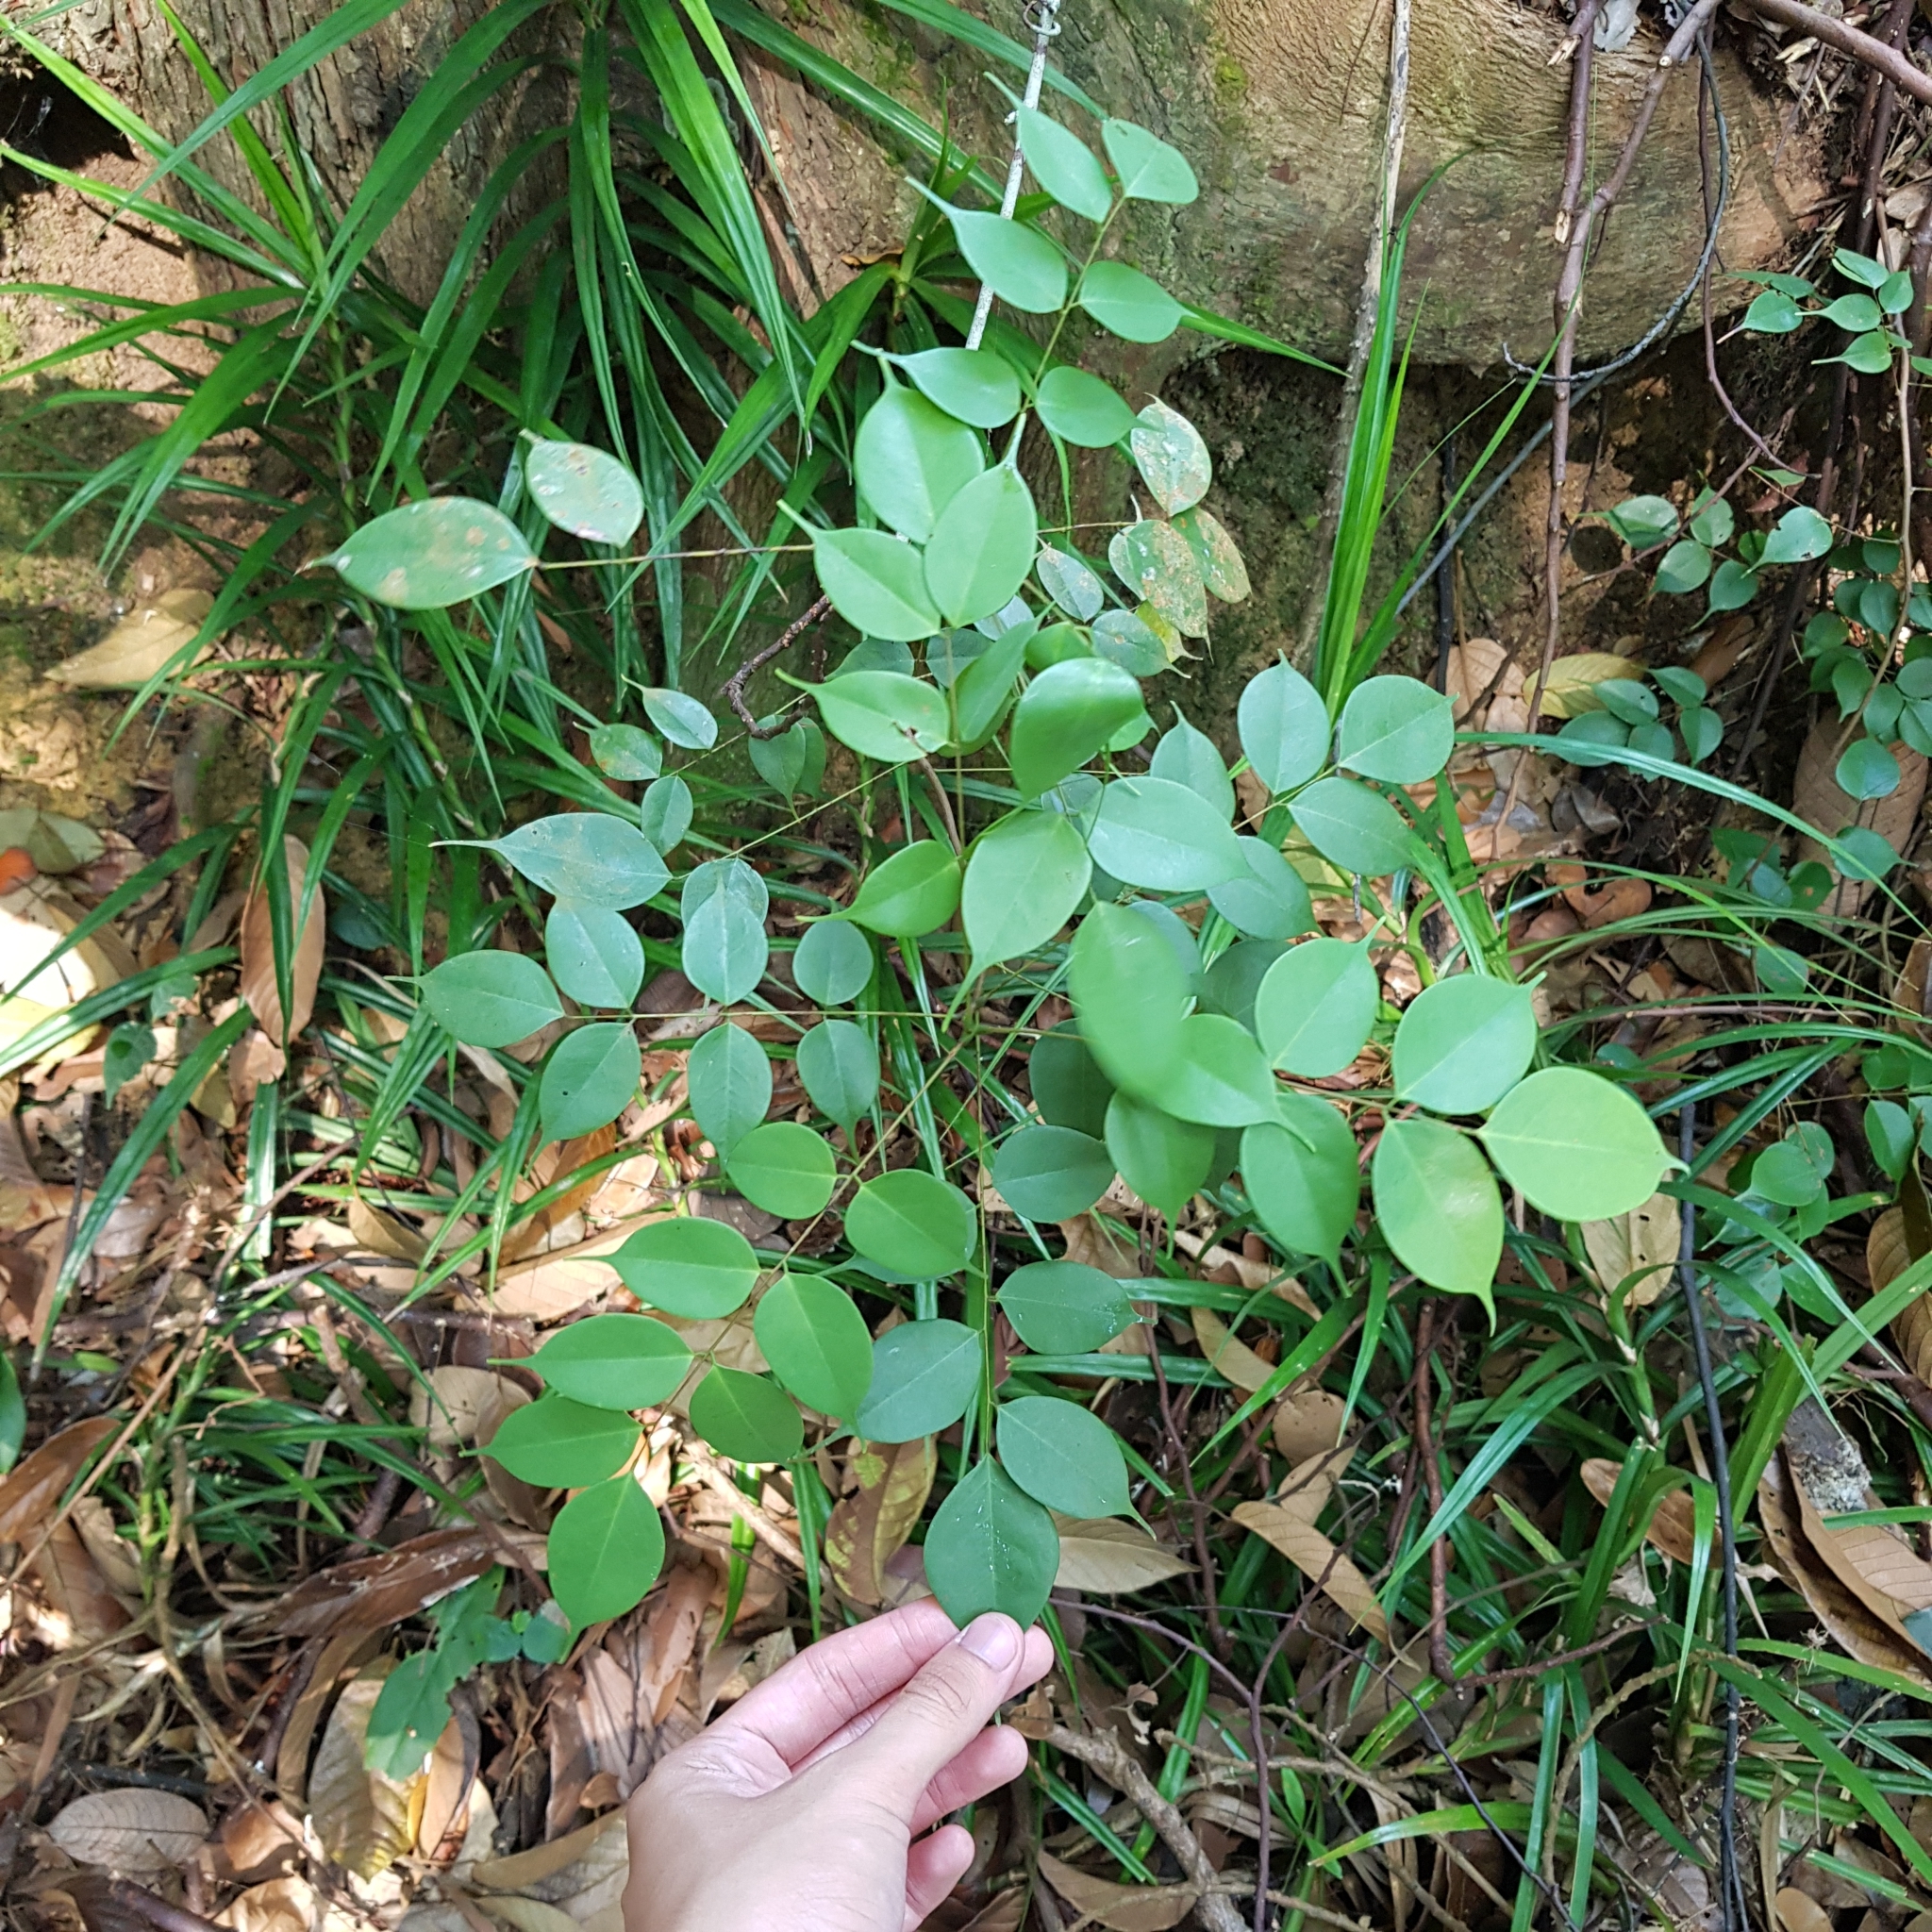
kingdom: Plantae
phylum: Tracheophyta
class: Magnoliopsida
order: Oxalidales
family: Connaraceae
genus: Rourea
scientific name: Rourea minor
